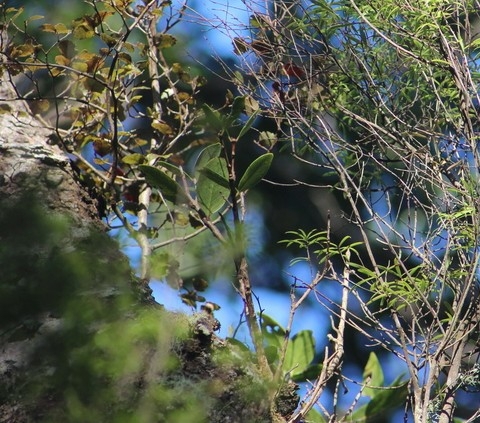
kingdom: Plantae
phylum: Tracheophyta
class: Magnoliopsida
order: Myrtales
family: Myrtaceae
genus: Metrosideros
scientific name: Metrosideros robusta
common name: Northern rata
